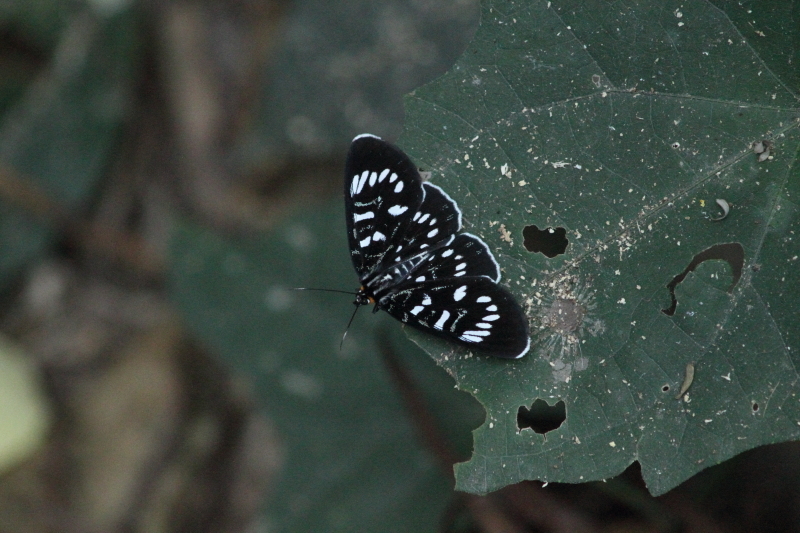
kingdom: Animalia
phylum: Arthropoda
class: Insecta
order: Lepidoptera
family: Noctuidae
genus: Ophthalmis
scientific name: Ophthalmis milete
